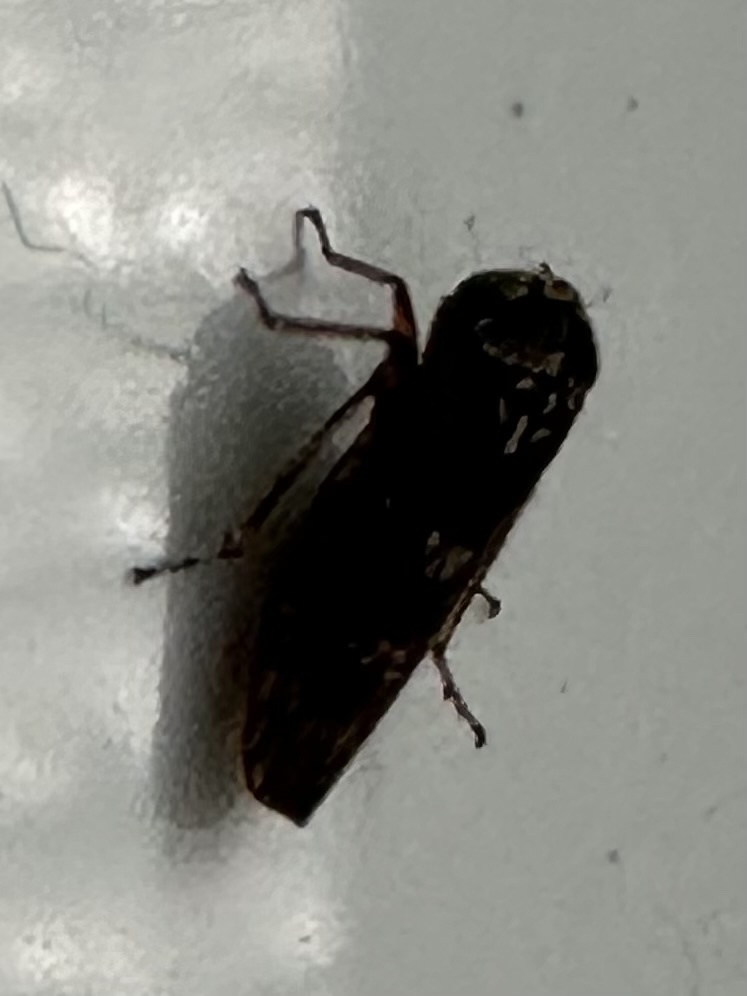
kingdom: Animalia
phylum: Arthropoda
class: Insecta
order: Hemiptera
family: Cicadellidae
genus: Acericerus
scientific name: Acericerus heydenii
